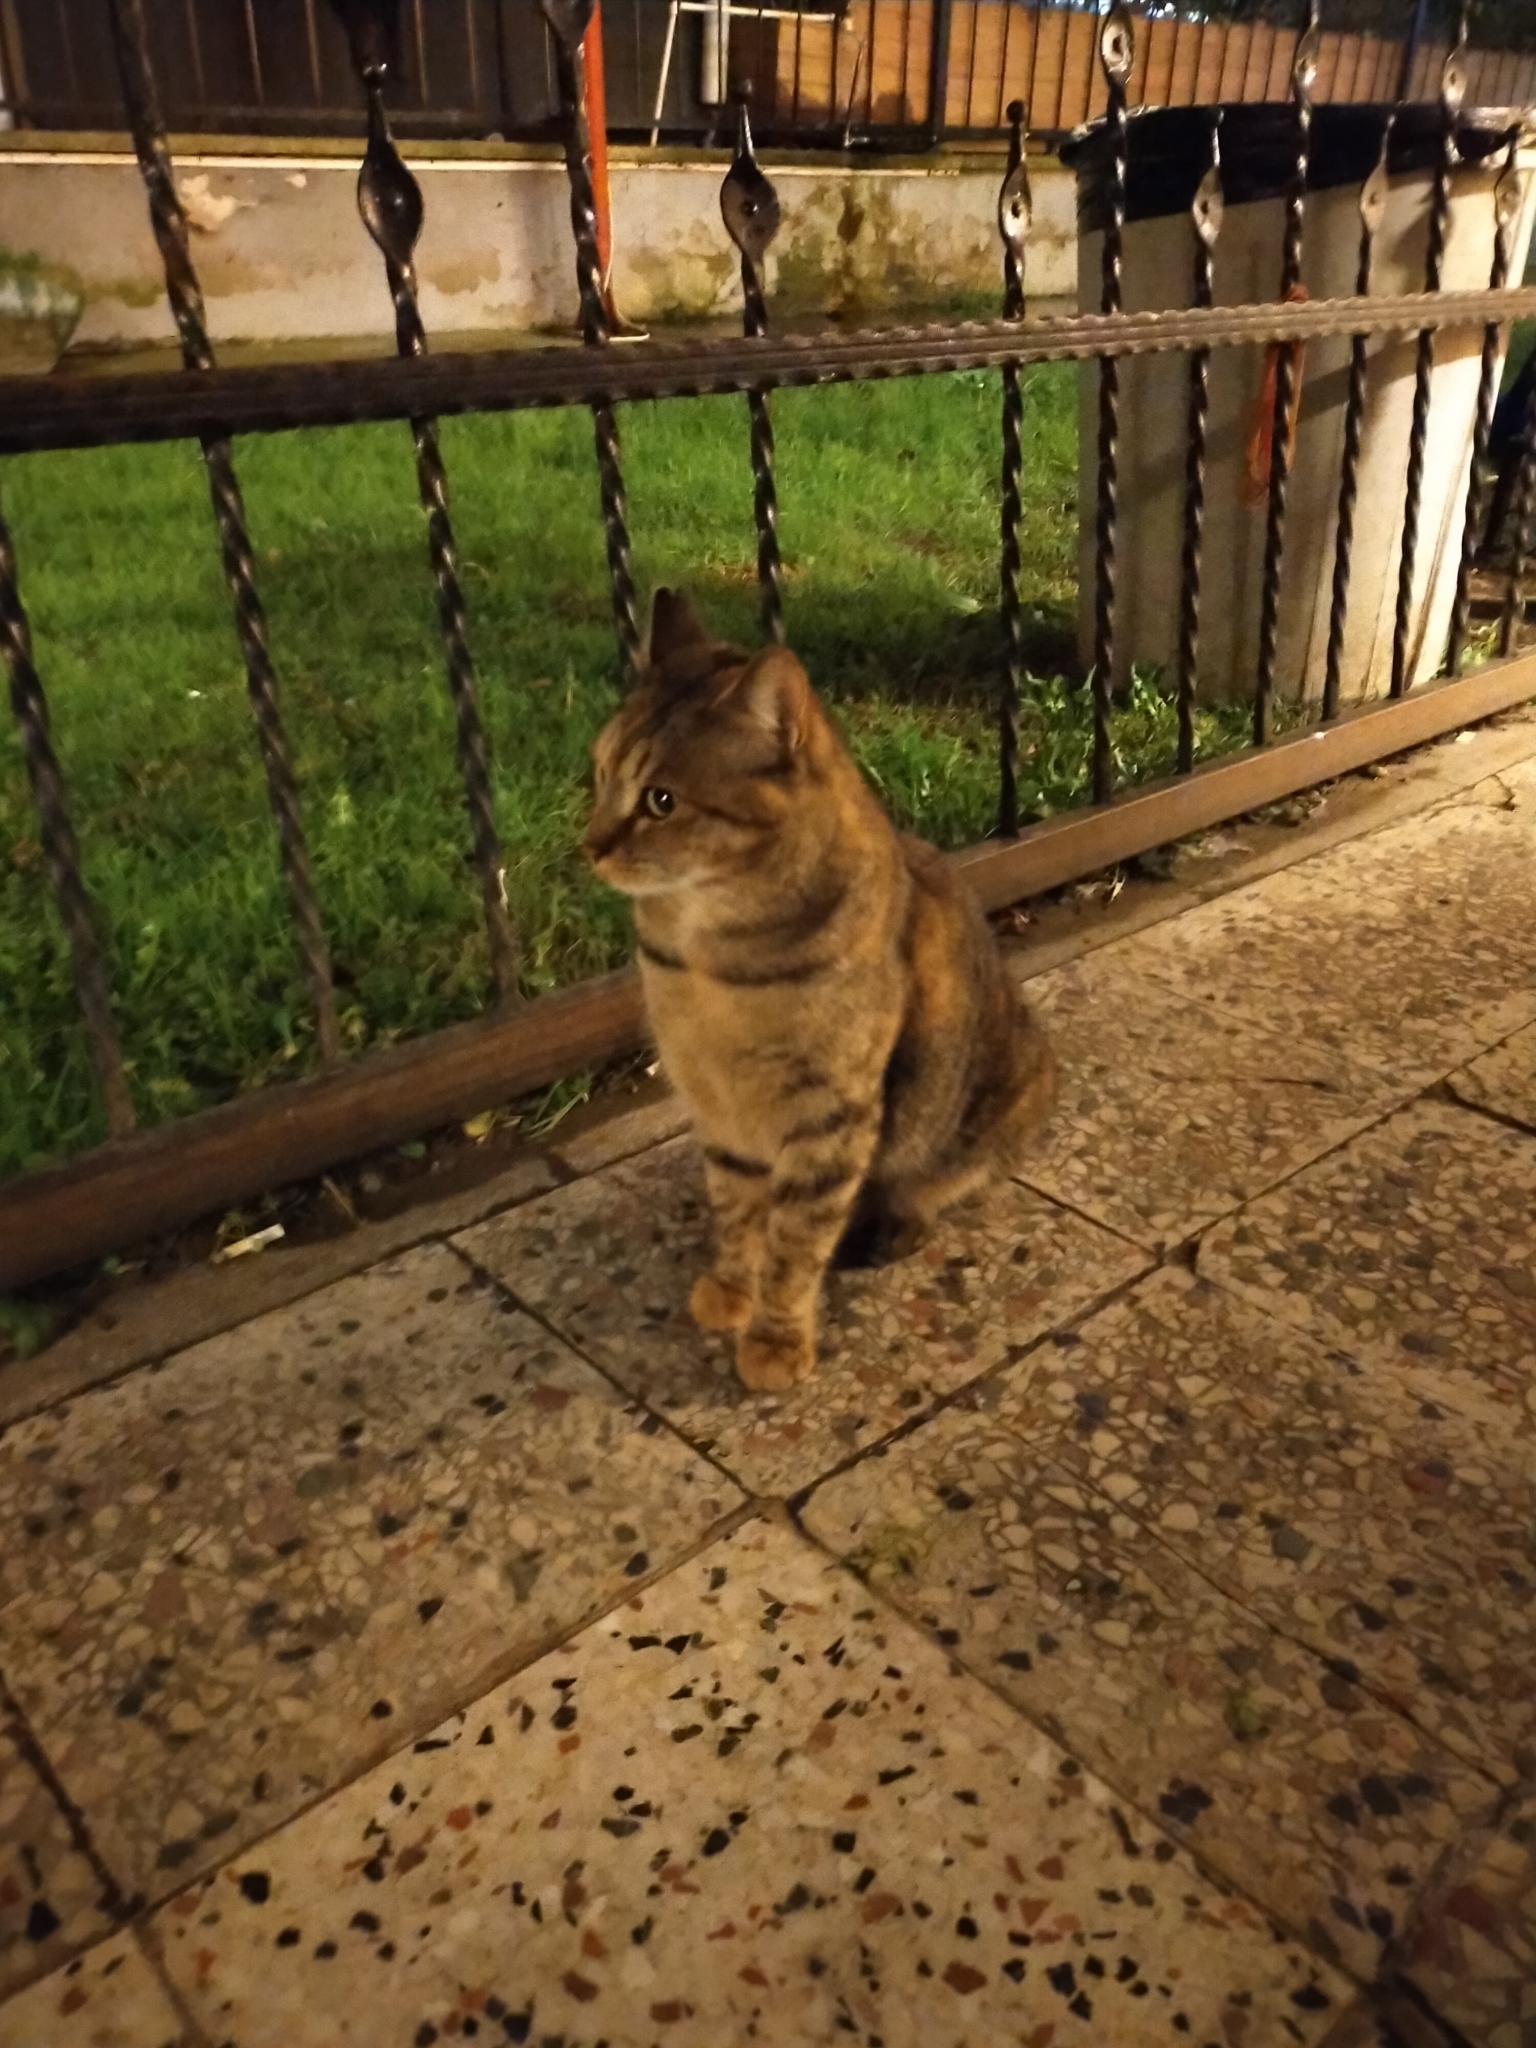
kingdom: Animalia
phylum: Chordata
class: Mammalia
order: Carnivora
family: Felidae
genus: Felis
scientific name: Felis catus
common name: Domestic cat
